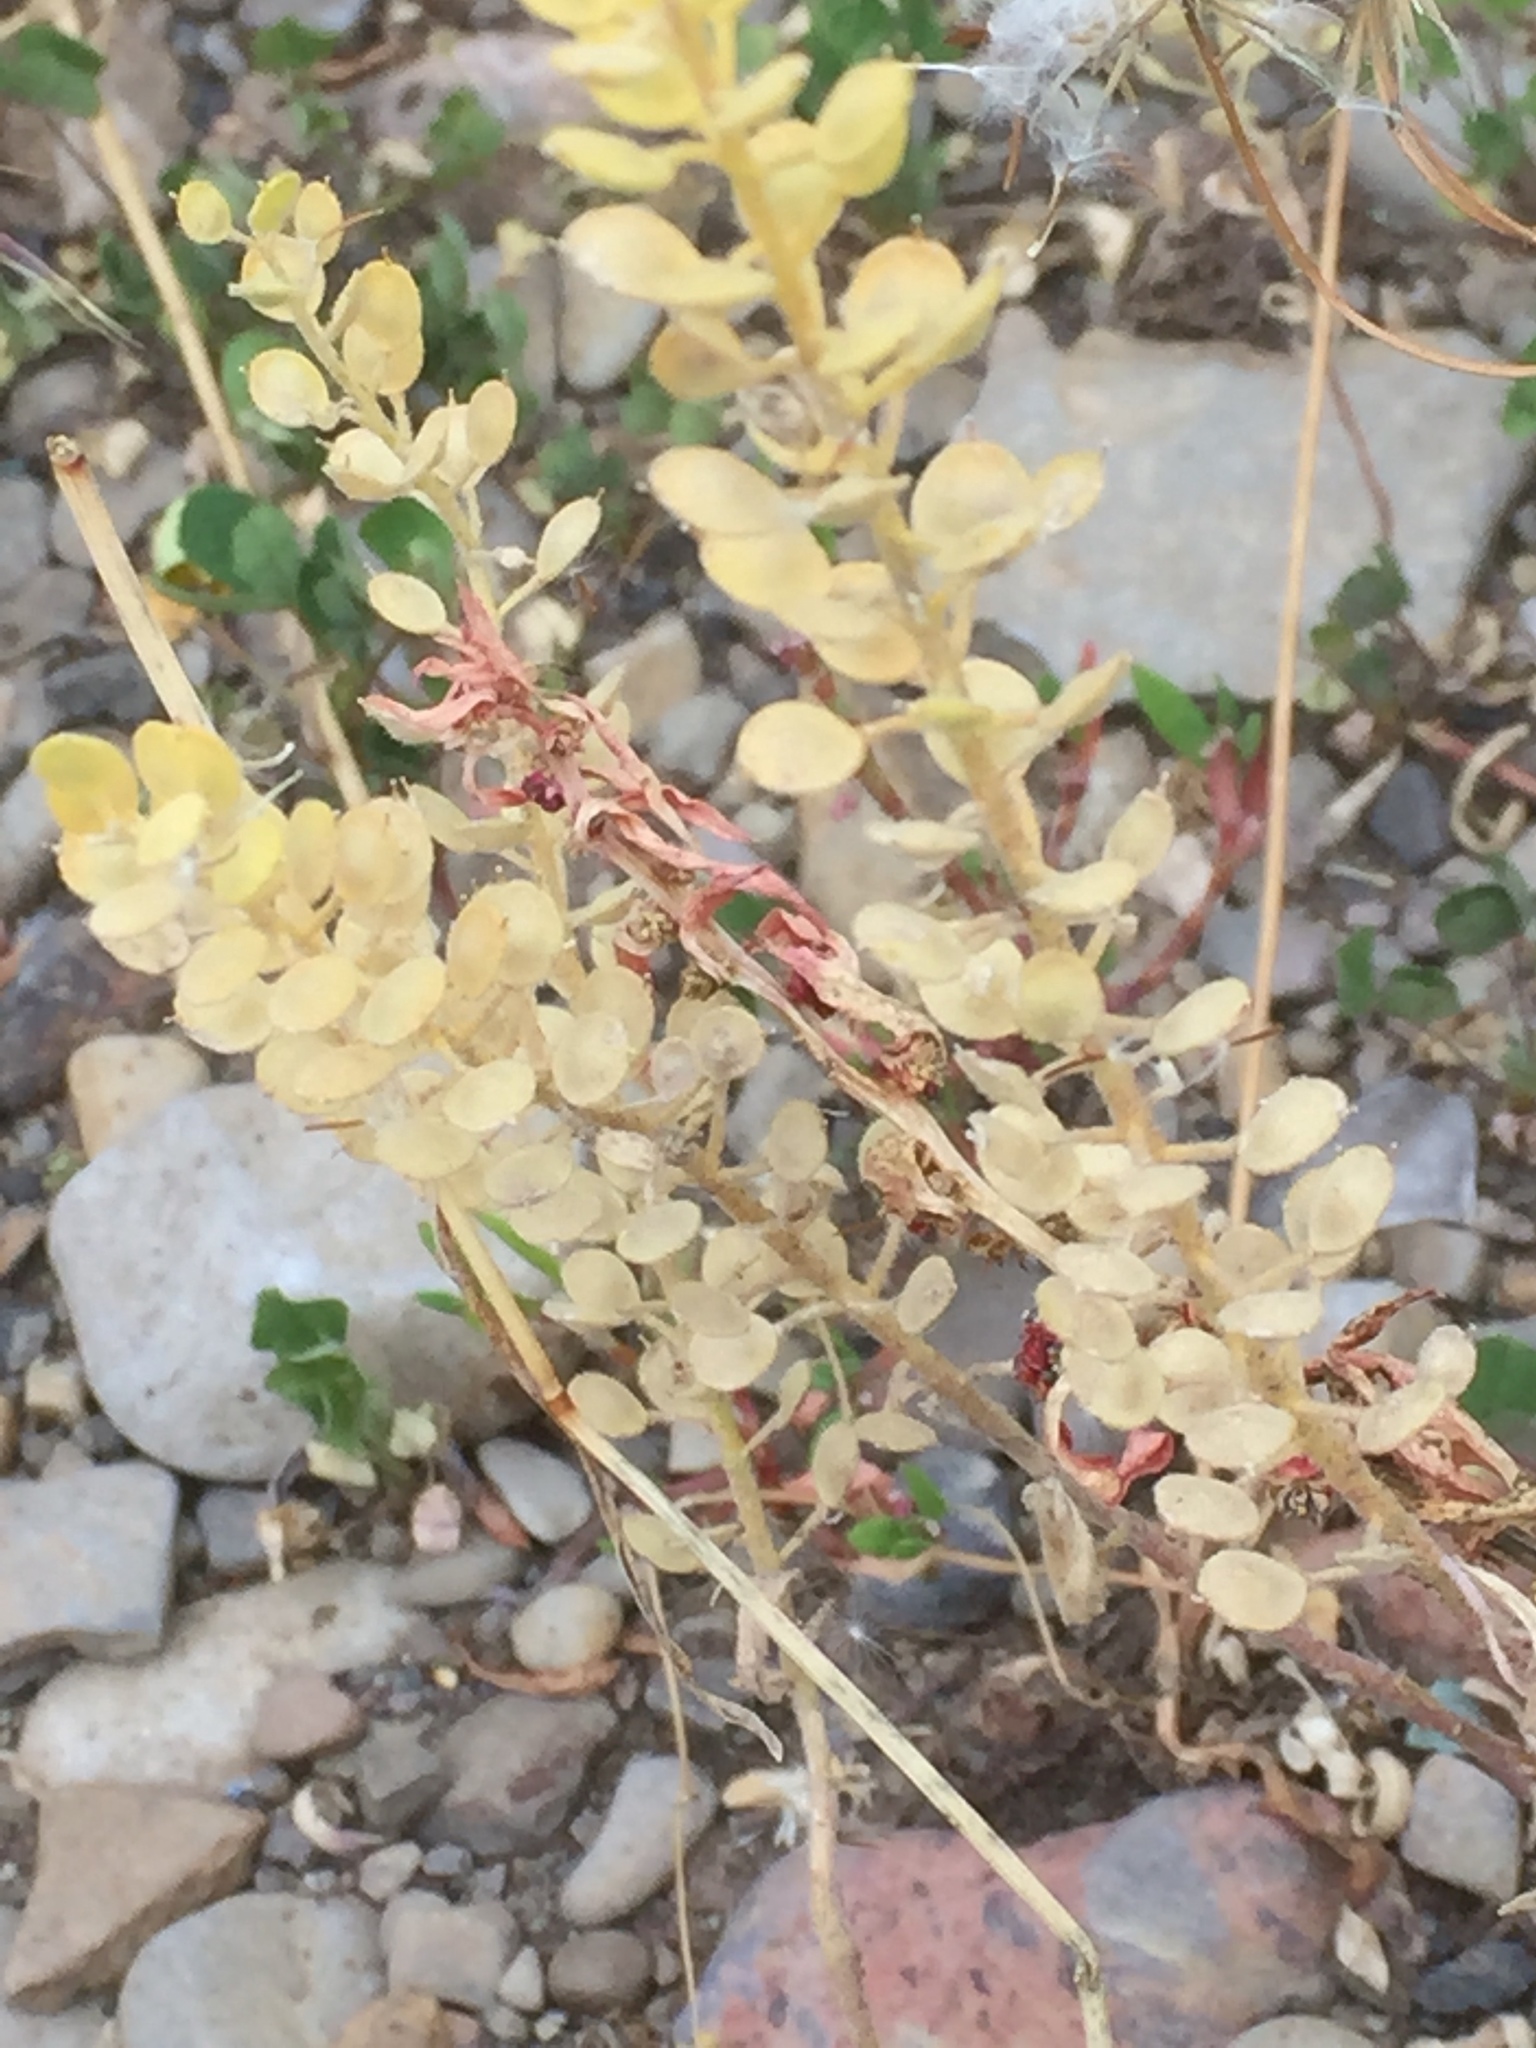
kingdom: Plantae
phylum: Tracheophyta
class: Magnoliopsida
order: Brassicales
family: Brassicaceae
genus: Alyssum
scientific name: Alyssum alyssoides
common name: Small alison
